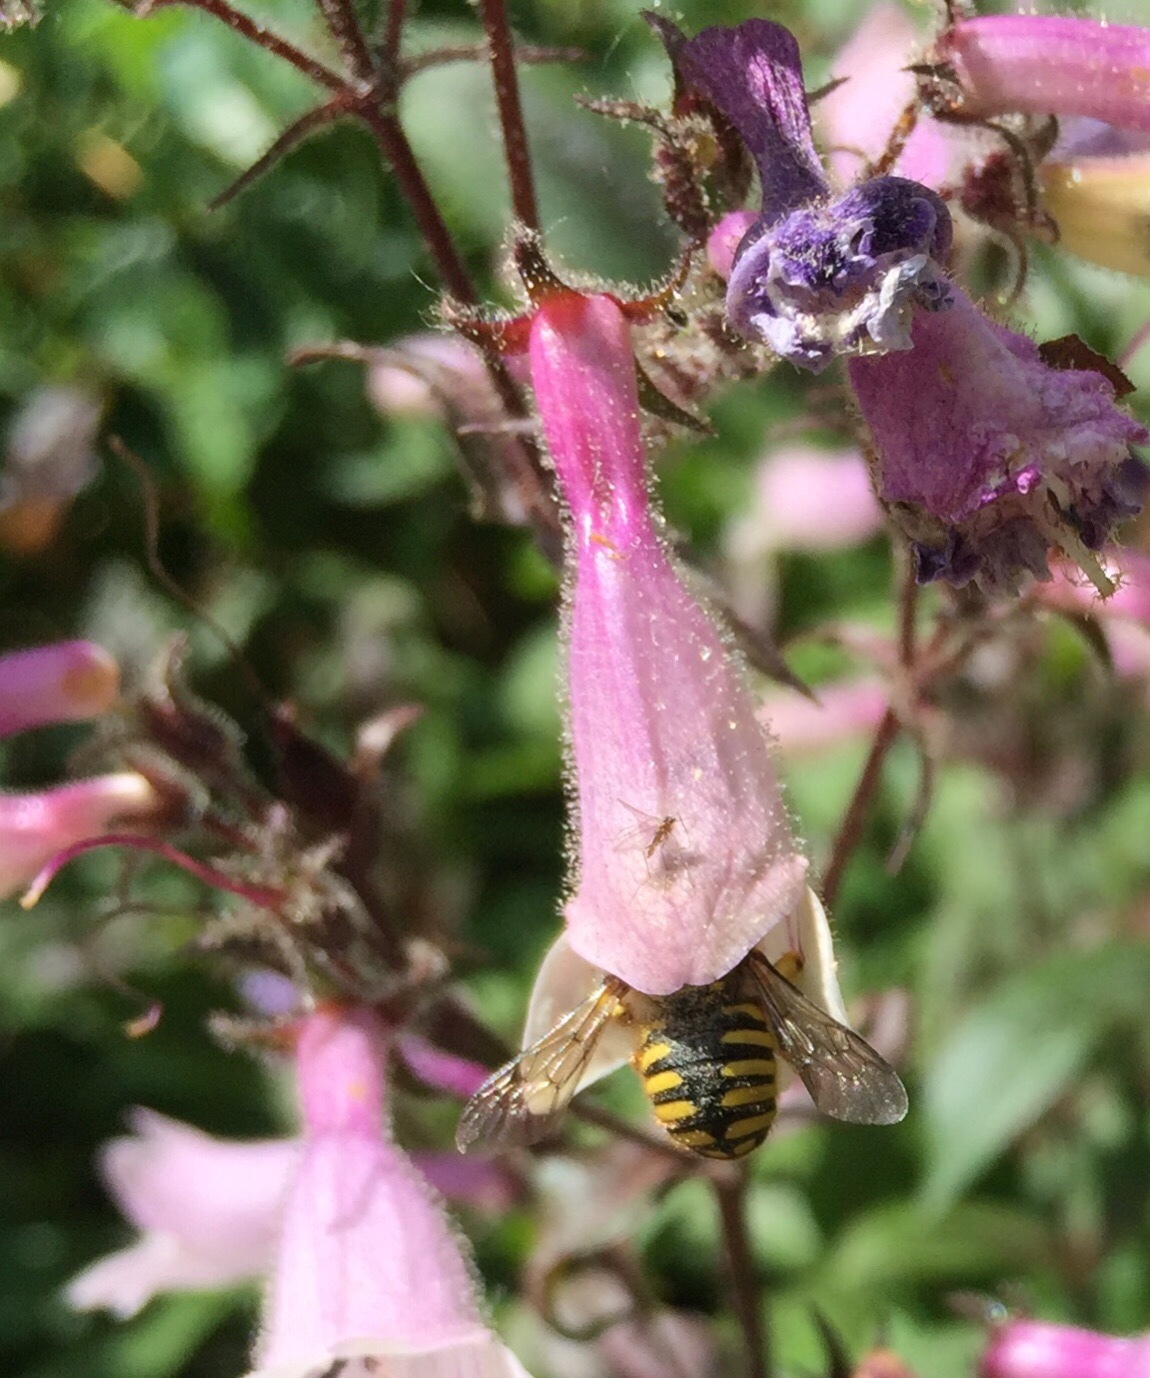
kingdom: Animalia
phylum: Arthropoda
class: Insecta
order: Hymenoptera
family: Megachilidae
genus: Anthidium
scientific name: Anthidium manicatum
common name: Wool carder bee
